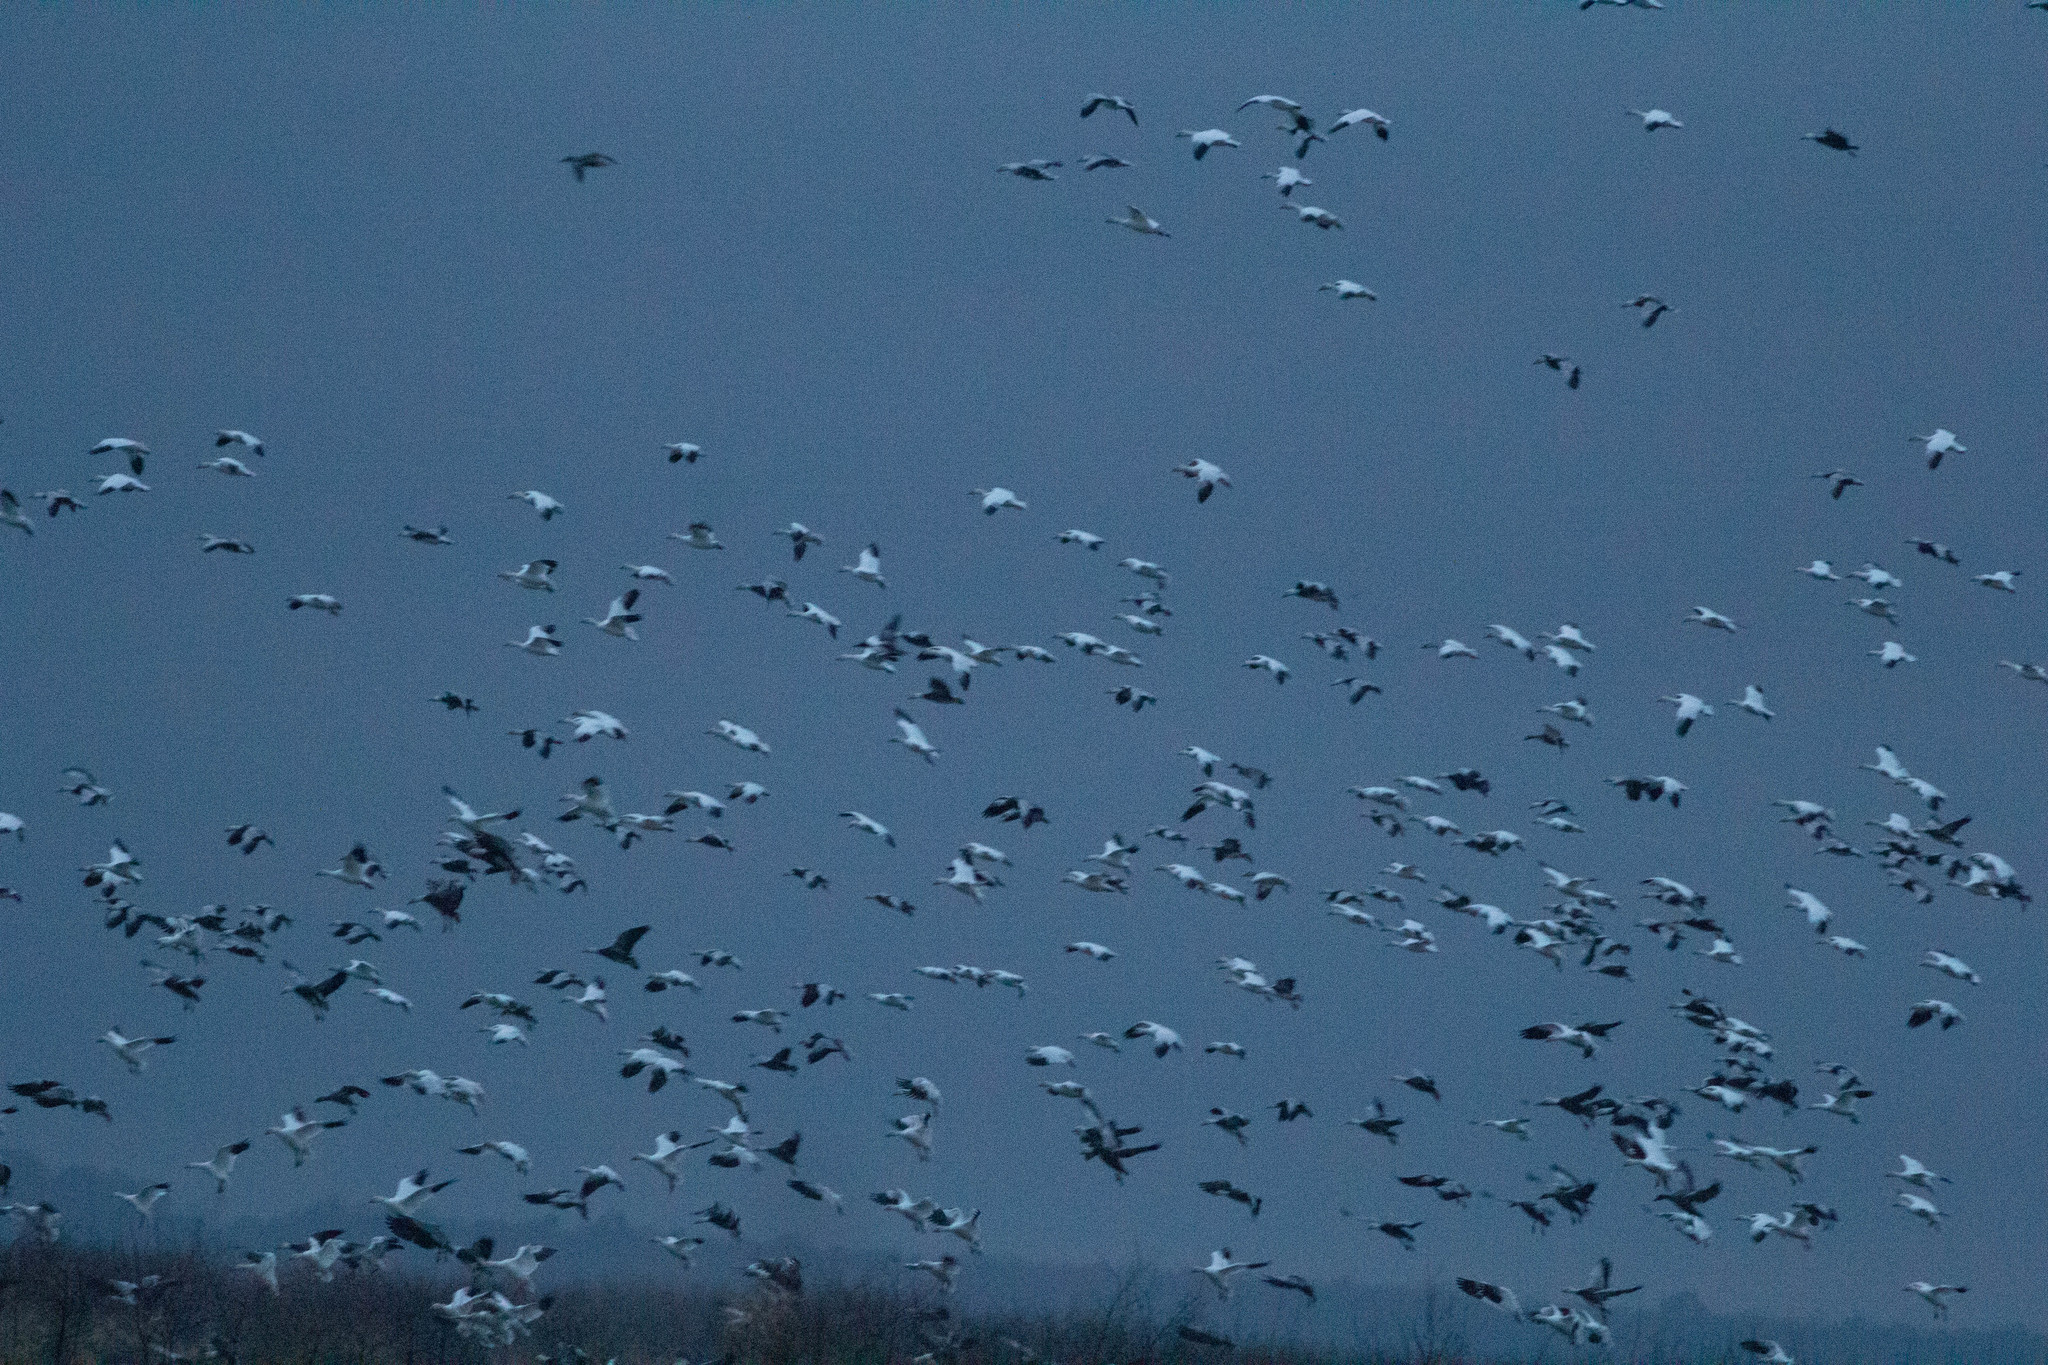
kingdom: Animalia
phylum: Chordata
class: Aves
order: Anseriformes
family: Anatidae
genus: Anser
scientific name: Anser caerulescens
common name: Snow goose
